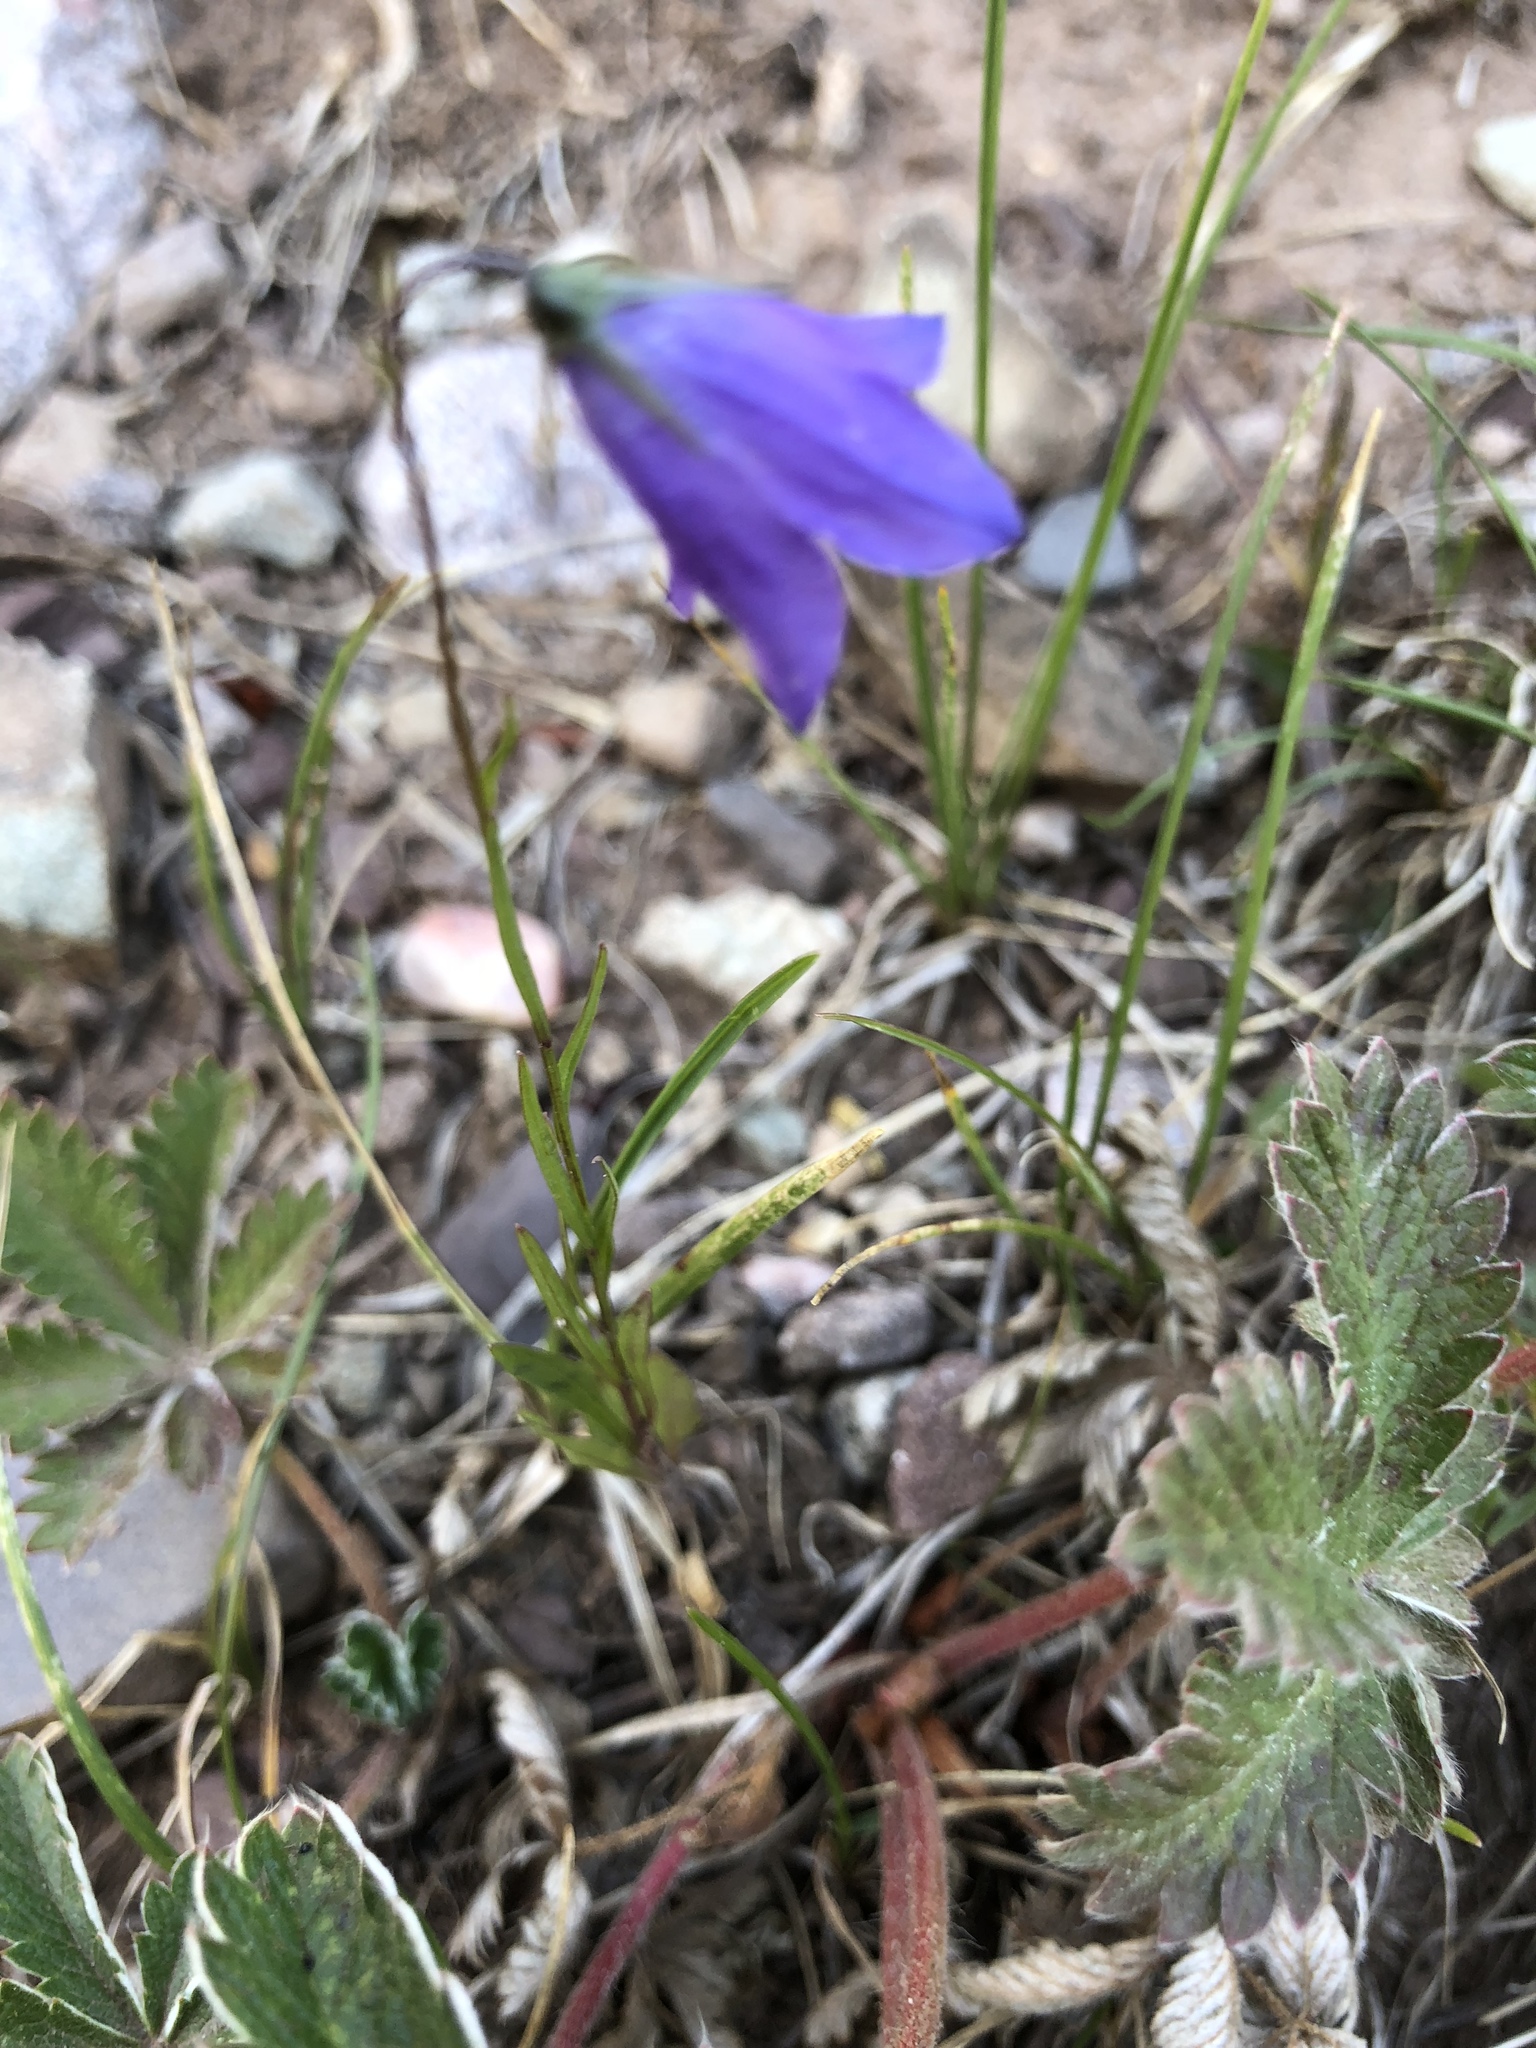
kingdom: Plantae
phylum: Tracheophyta
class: Magnoliopsida
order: Asterales
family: Campanulaceae
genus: Campanula
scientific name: Campanula petiolata
